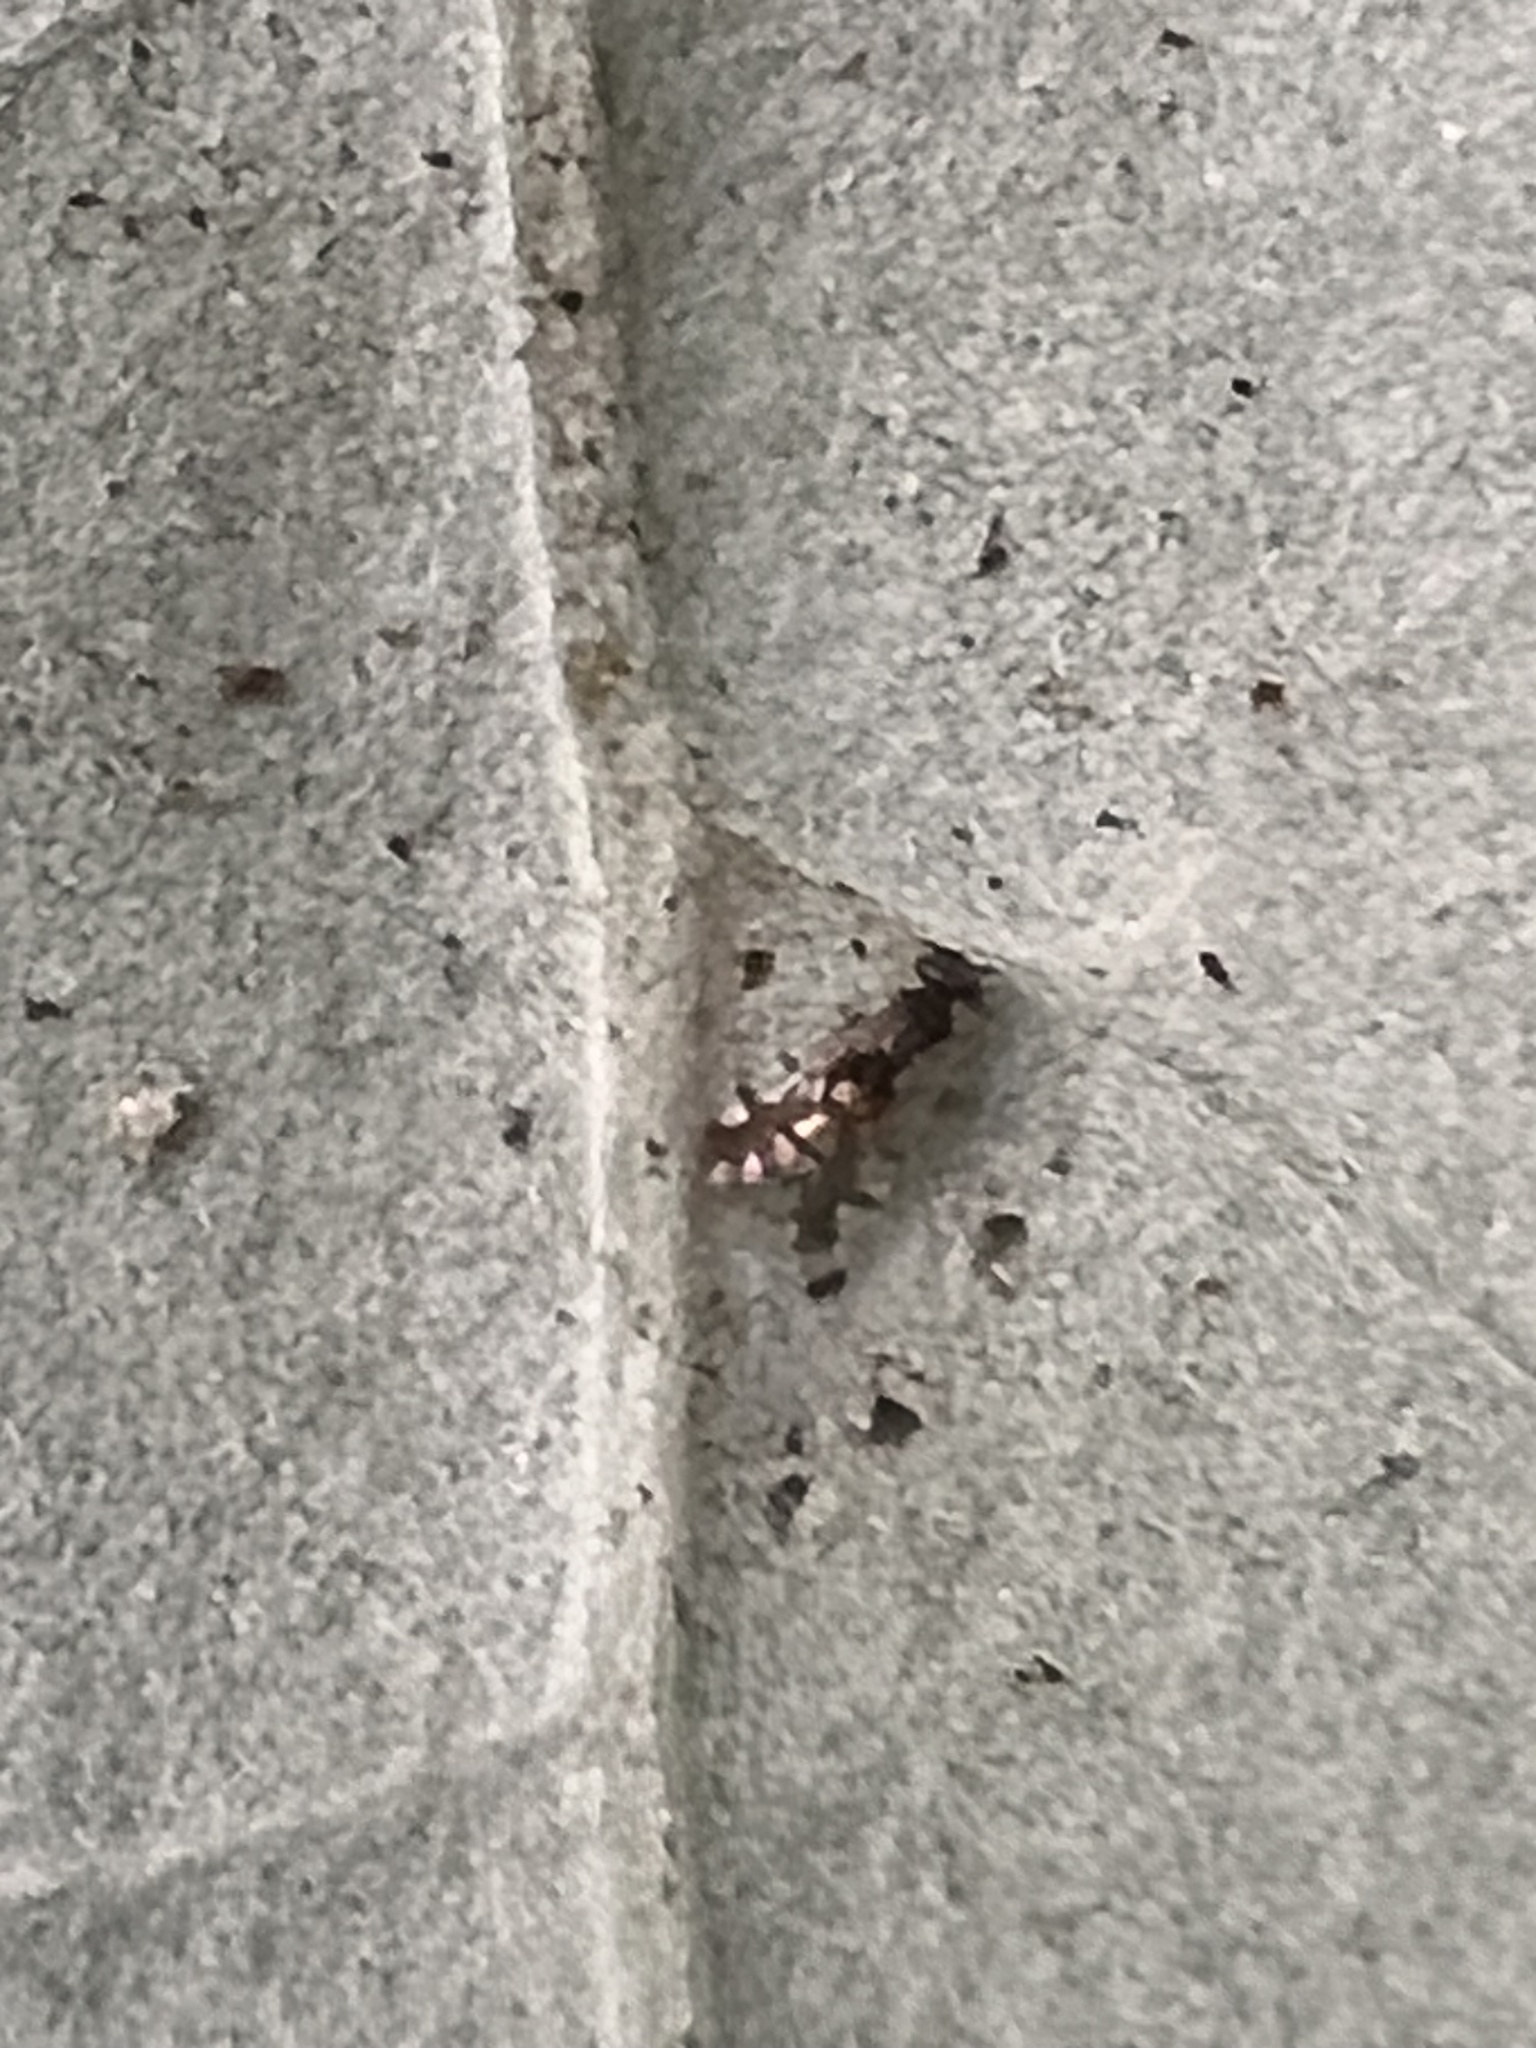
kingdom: Animalia
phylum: Arthropoda
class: Insecta
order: Psocodea
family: Ectopsocidae
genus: Ectopsocus
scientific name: Ectopsocus gracilis
